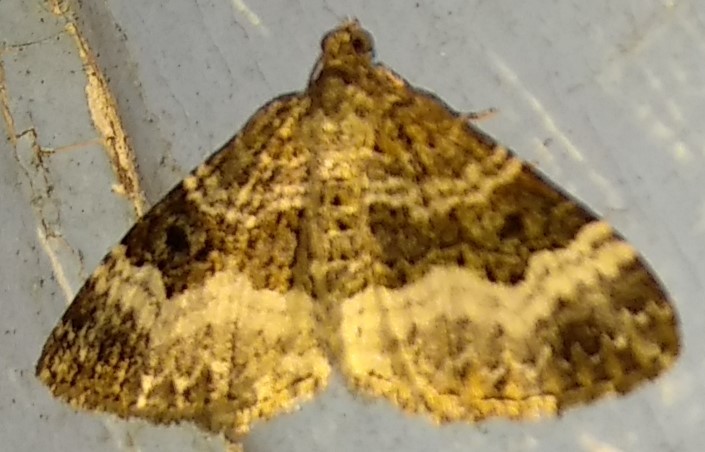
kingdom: Animalia
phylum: Arthropoda
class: Insecta
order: Lepidoptera
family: Geometridae
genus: Epirrhoe
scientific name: Epirrhoe alternata
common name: Common carpet
